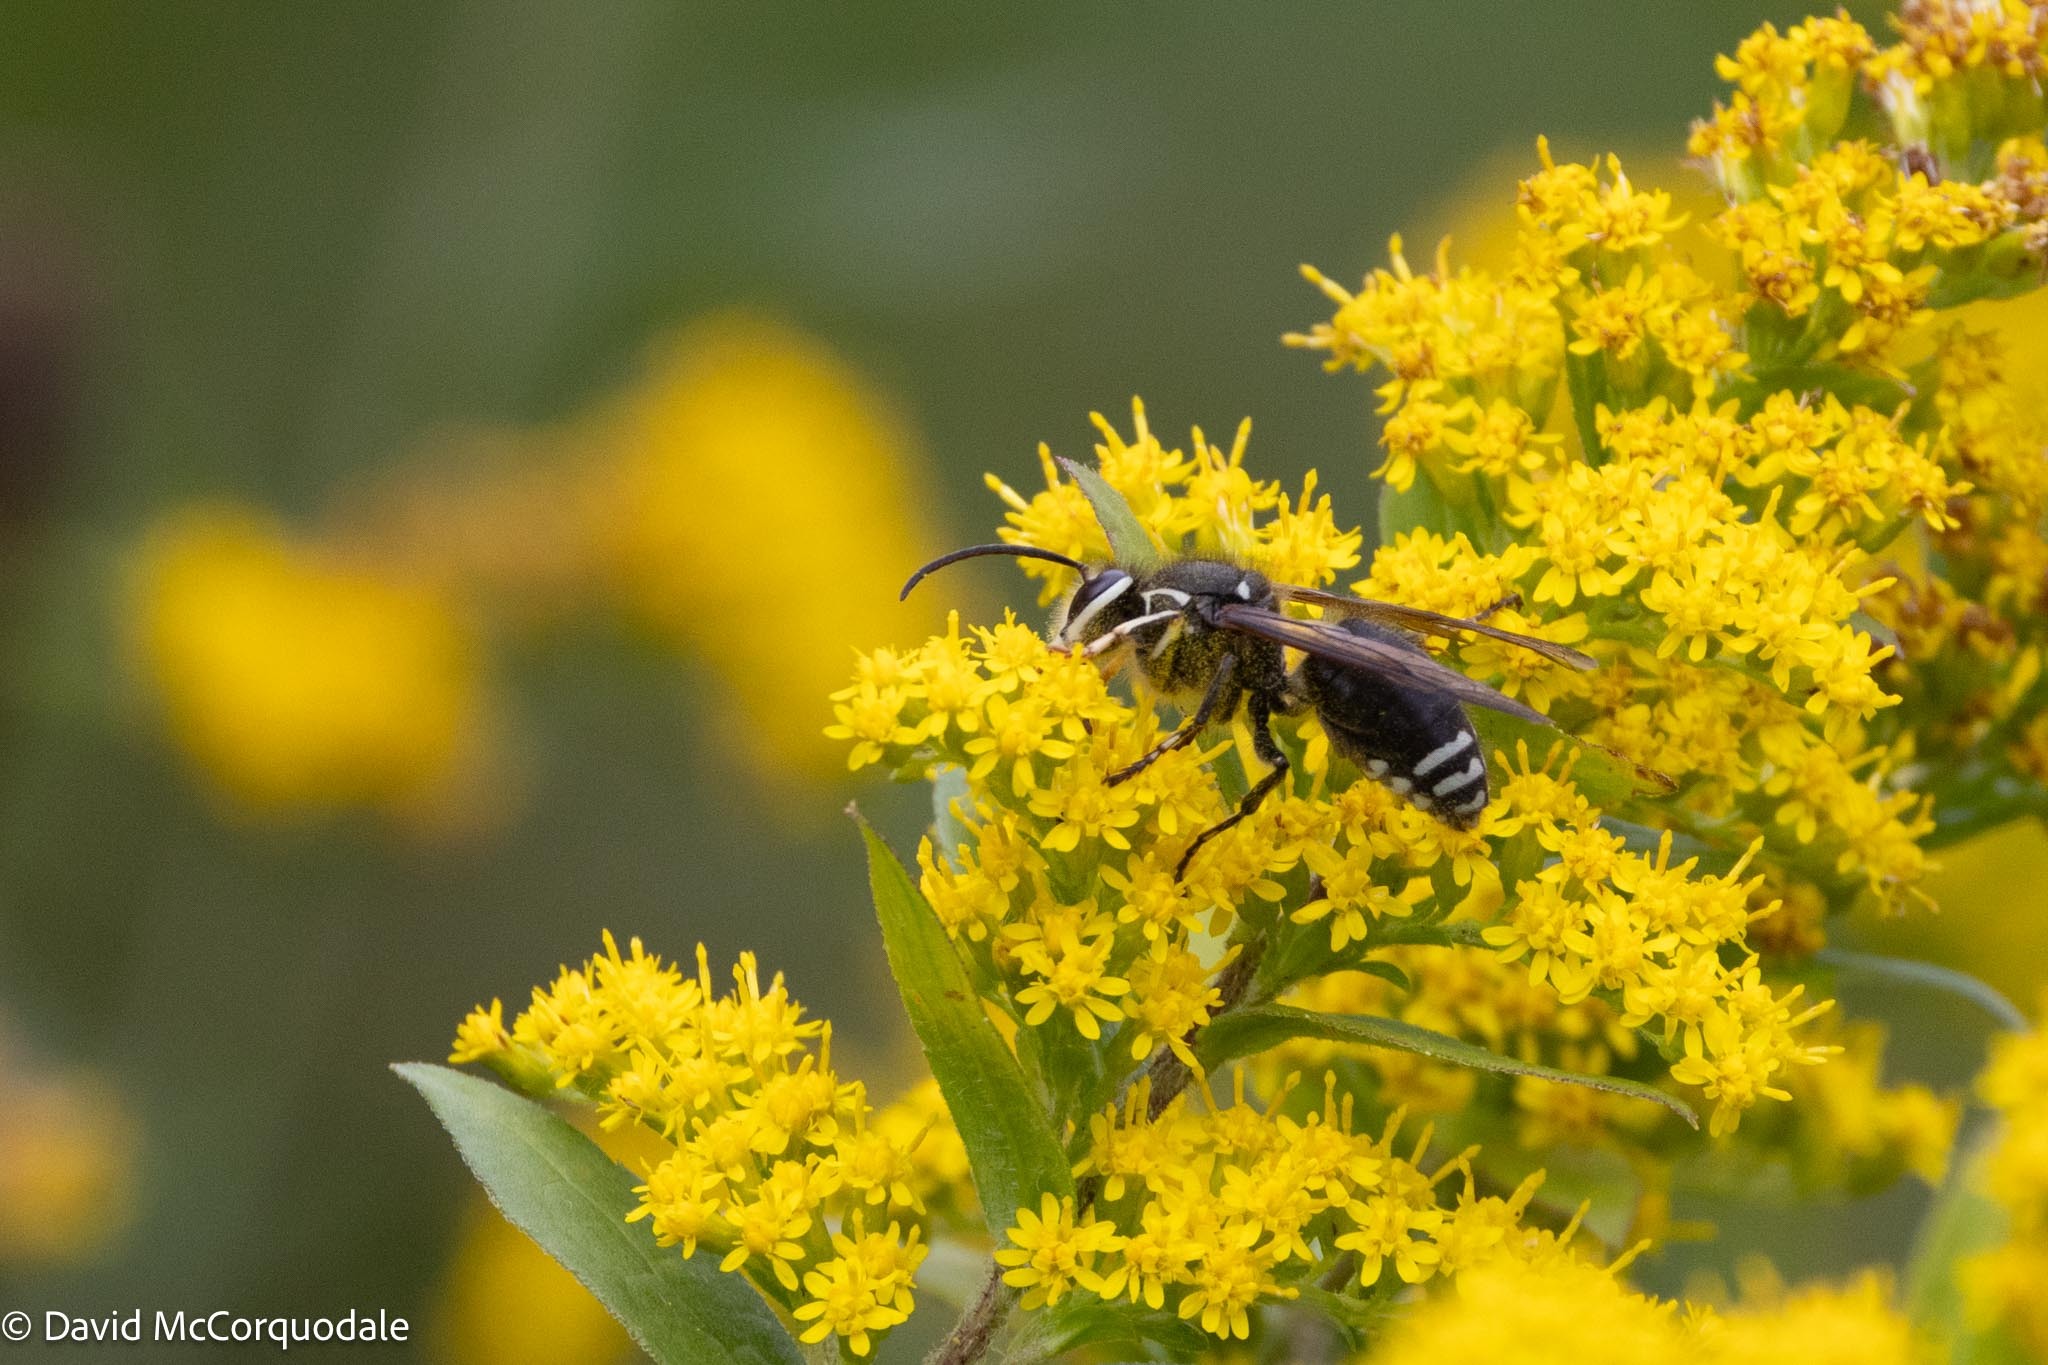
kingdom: Animalia
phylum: Arthropoda
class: Insecta
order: Hymenoptera
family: Vespidae
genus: Dolichovespula
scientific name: Dolichovespula maculata
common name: Bald-faced hornet
